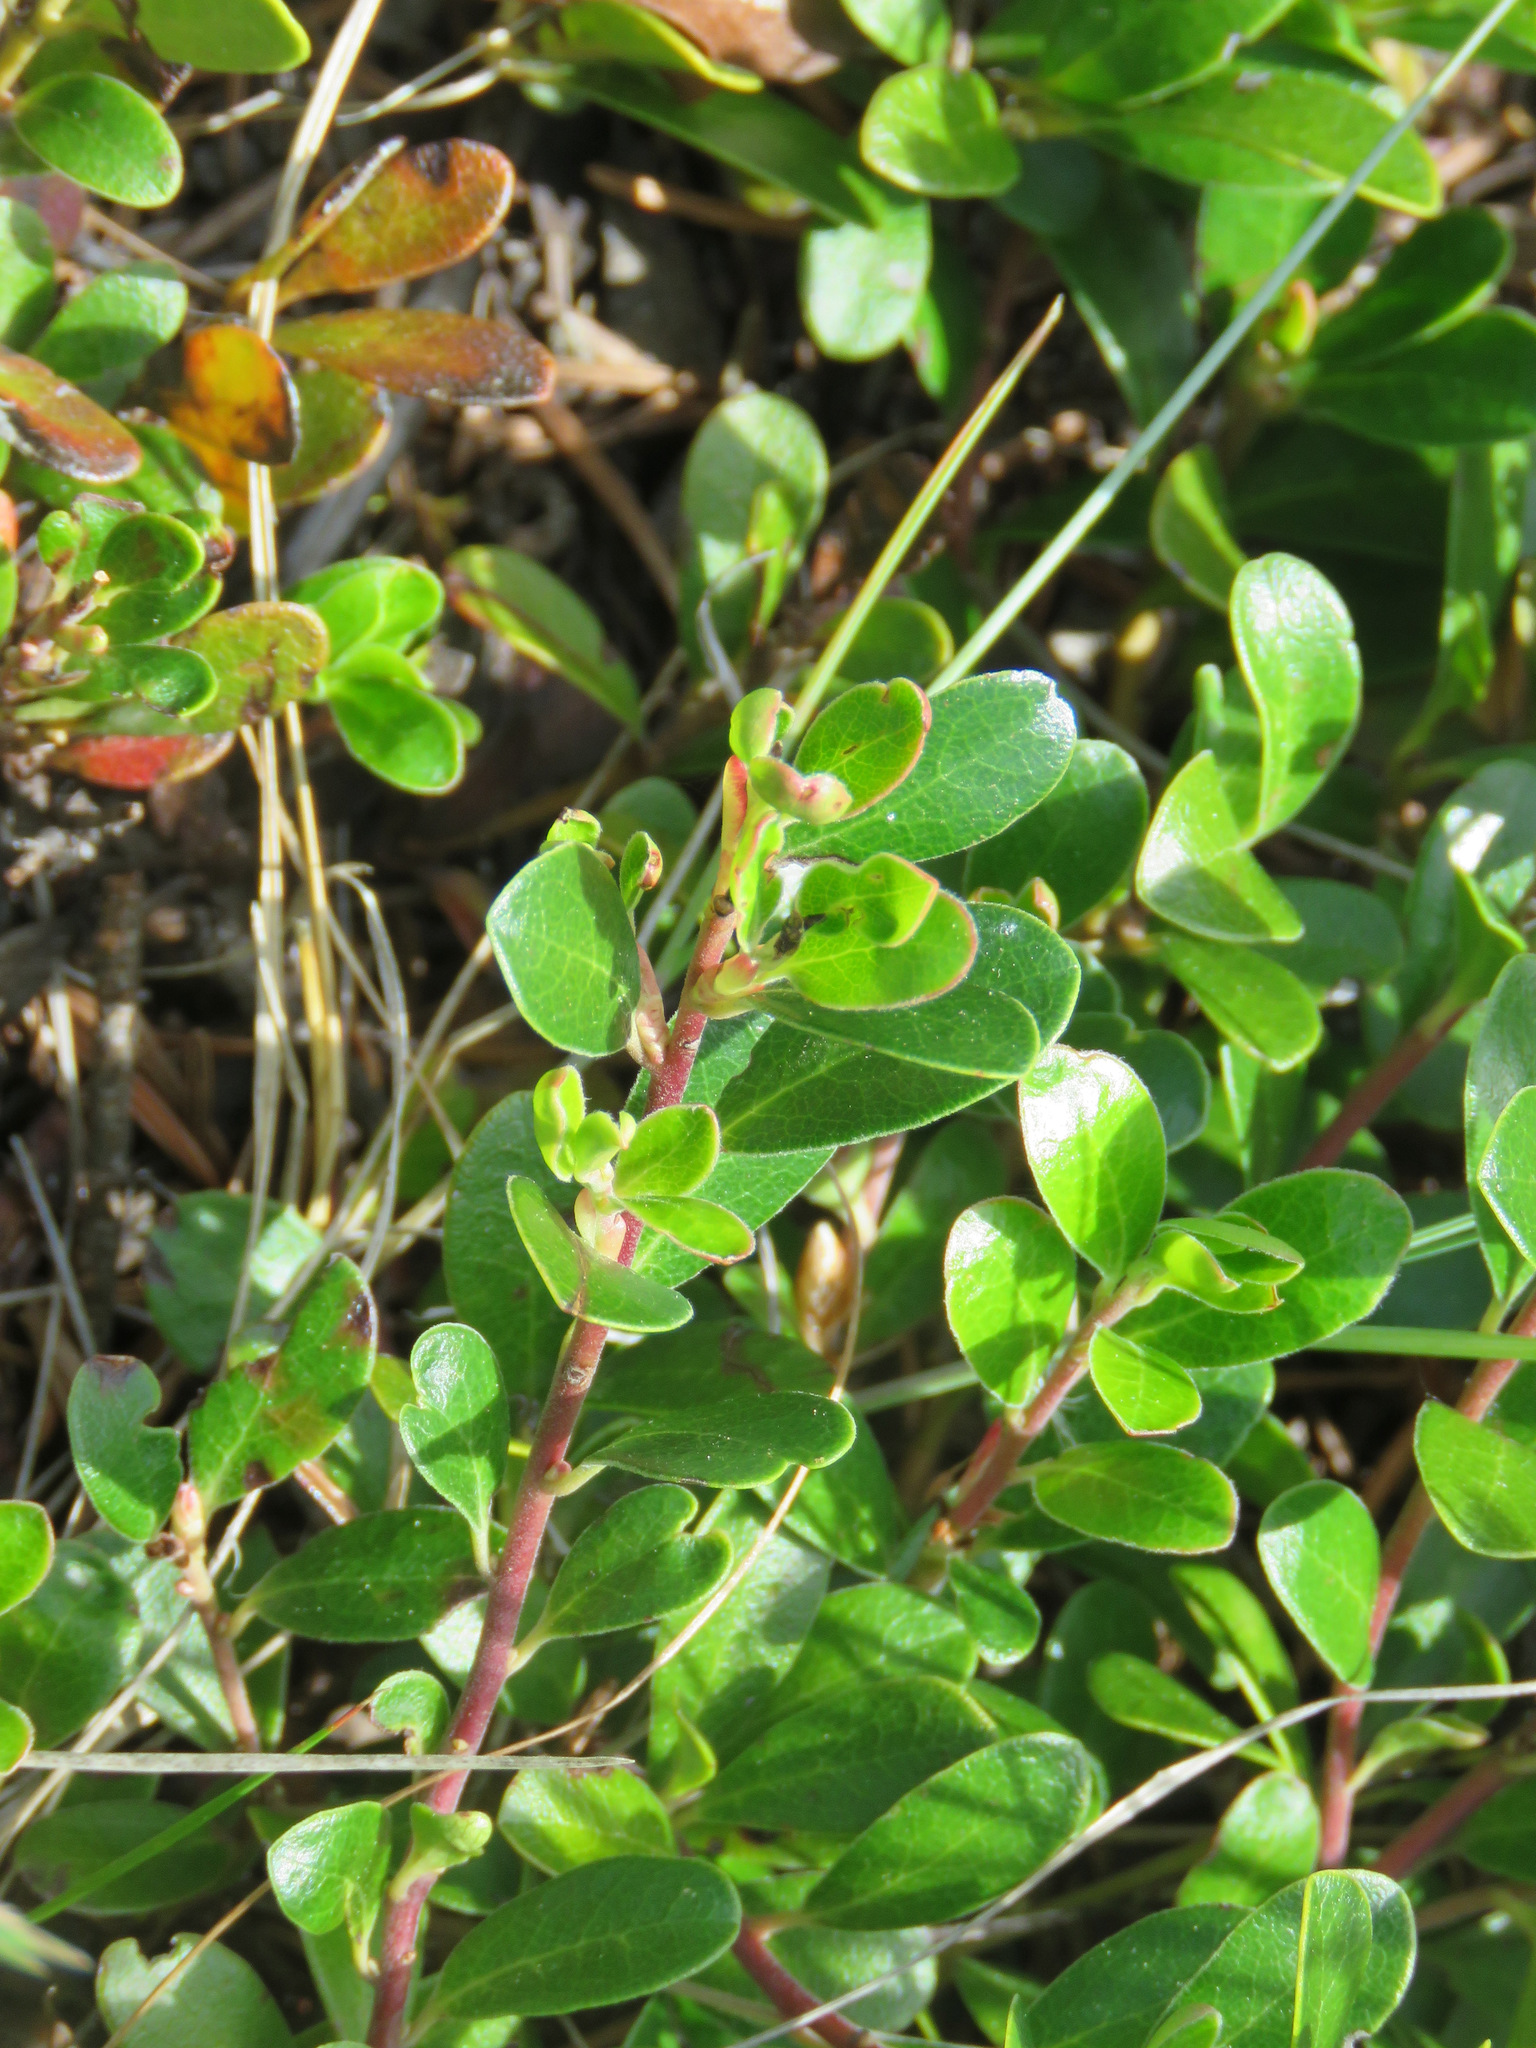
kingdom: Plantae
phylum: Tracheophyta
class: Magnoliopsida
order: Ericales
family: Ericaceae
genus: Arctostaphylos
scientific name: Arctostaphylos uva-ursi
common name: Bearberry
